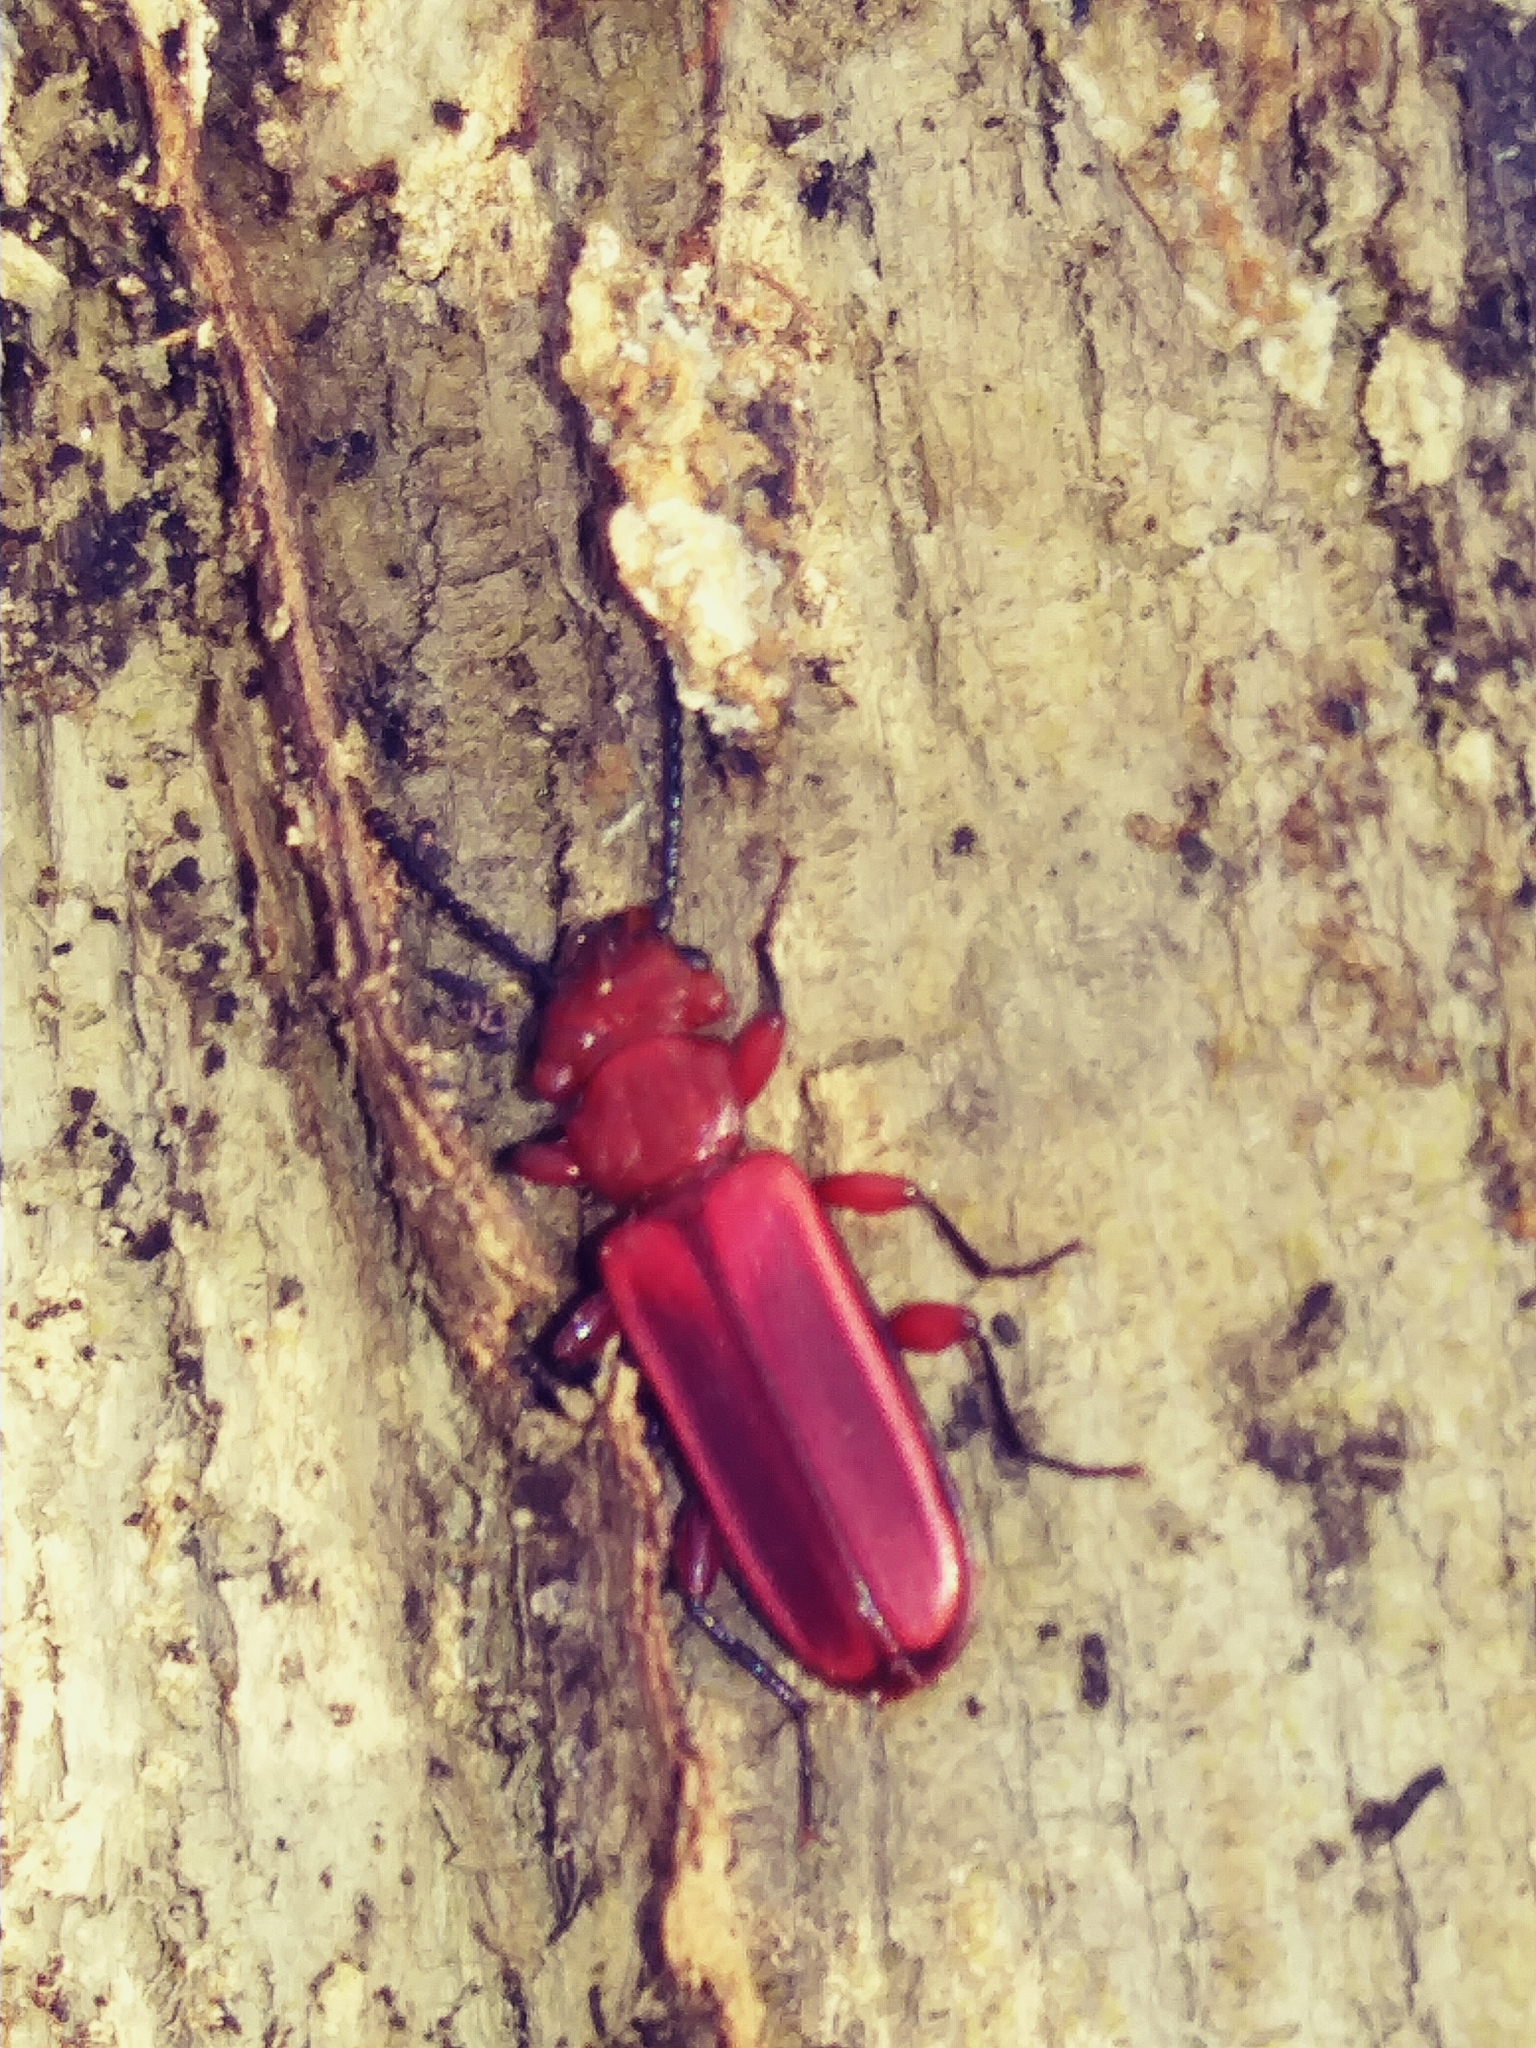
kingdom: Animalia
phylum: Arthropoda
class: Insecta
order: Coleoptera
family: Cucujidae
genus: Cucujus
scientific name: Cucujus clavipes
